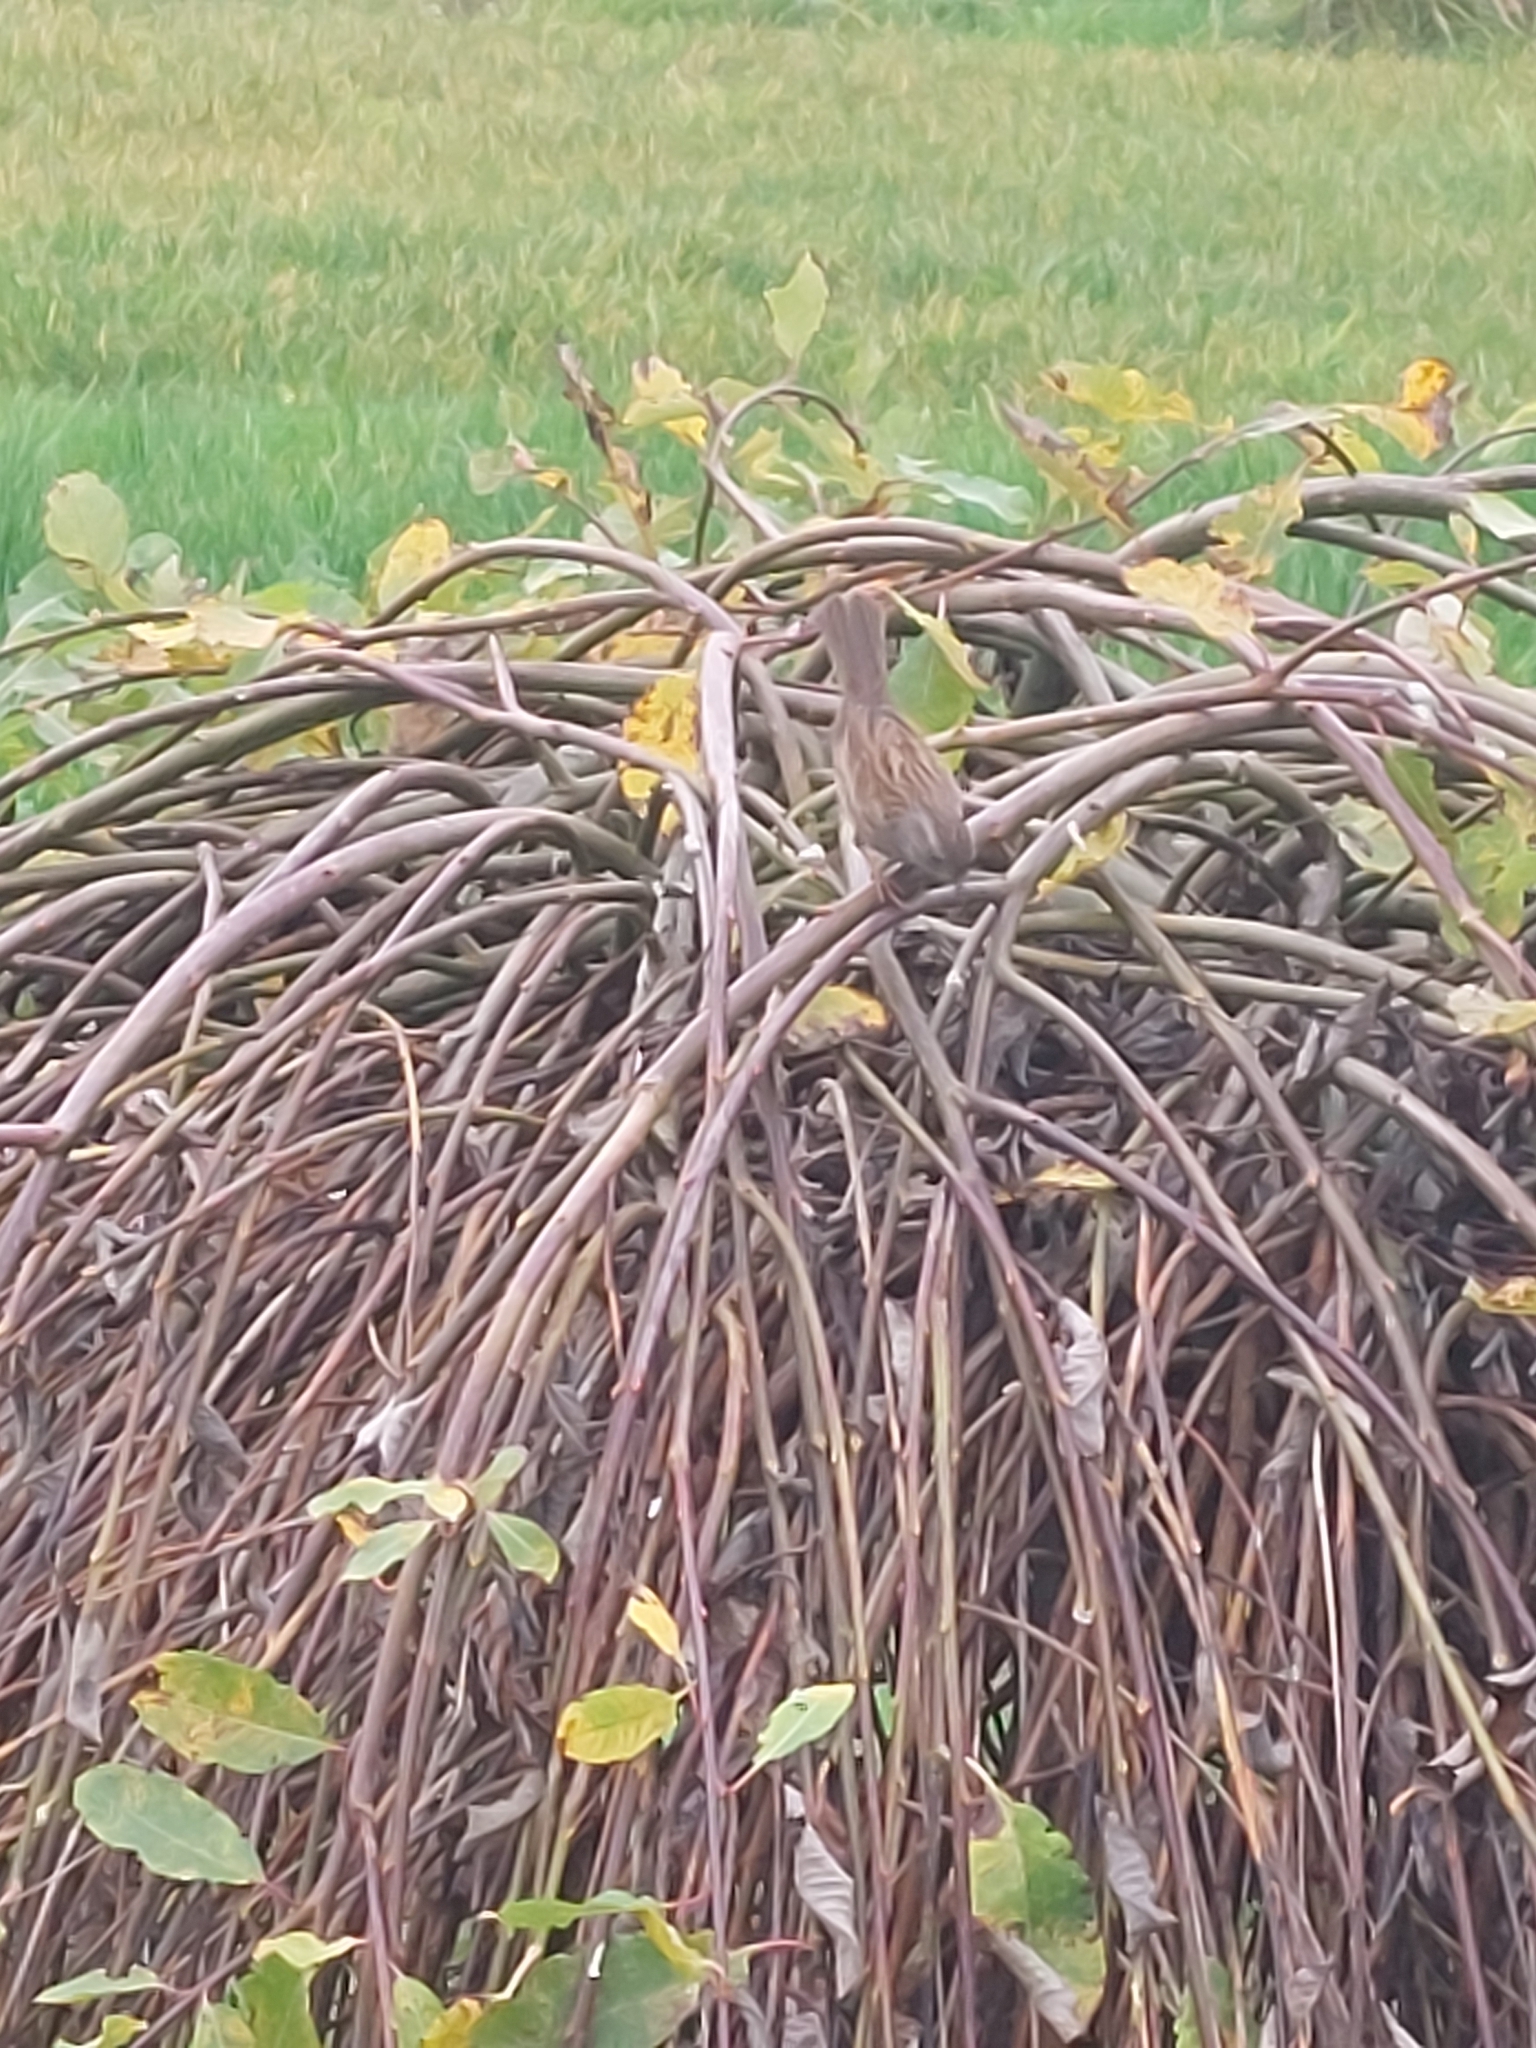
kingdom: Animalia
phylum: Chordata
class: Aves
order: Passeriformes
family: Prunellidae
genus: Prunella
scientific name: Prunella modularis
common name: Dunnock
